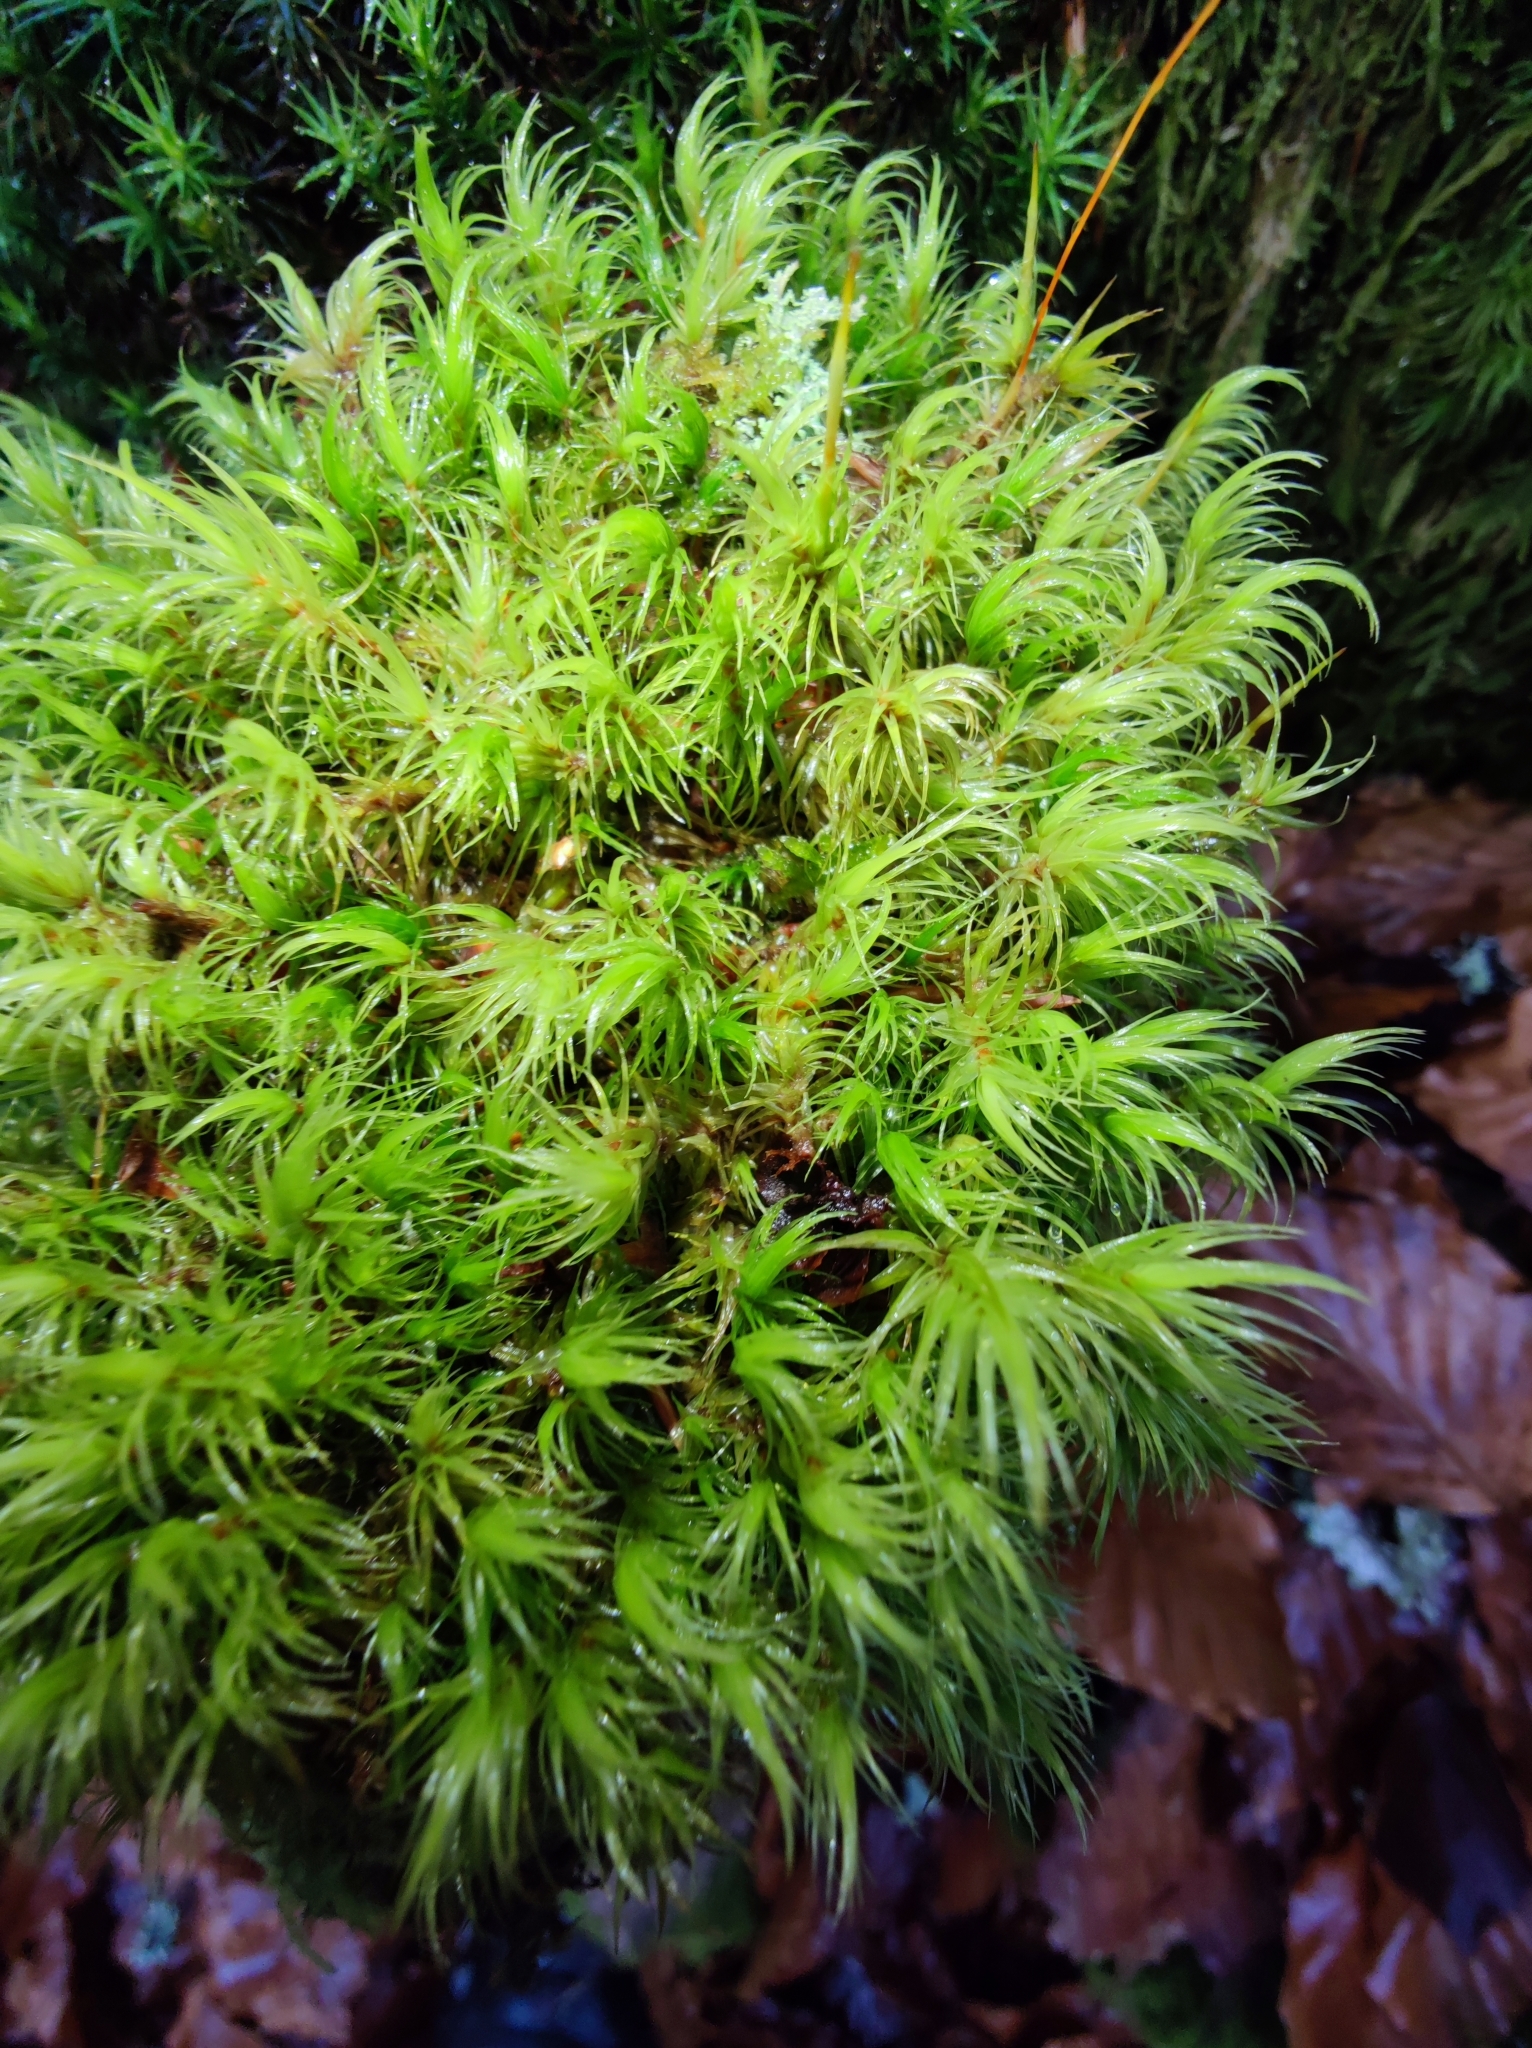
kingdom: Plantae
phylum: Bryophyta
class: Bryopsida
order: Dicranales
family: Dicranaceae
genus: Dicranum
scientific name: Dicranum scoparium
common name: Broom fork-moss
